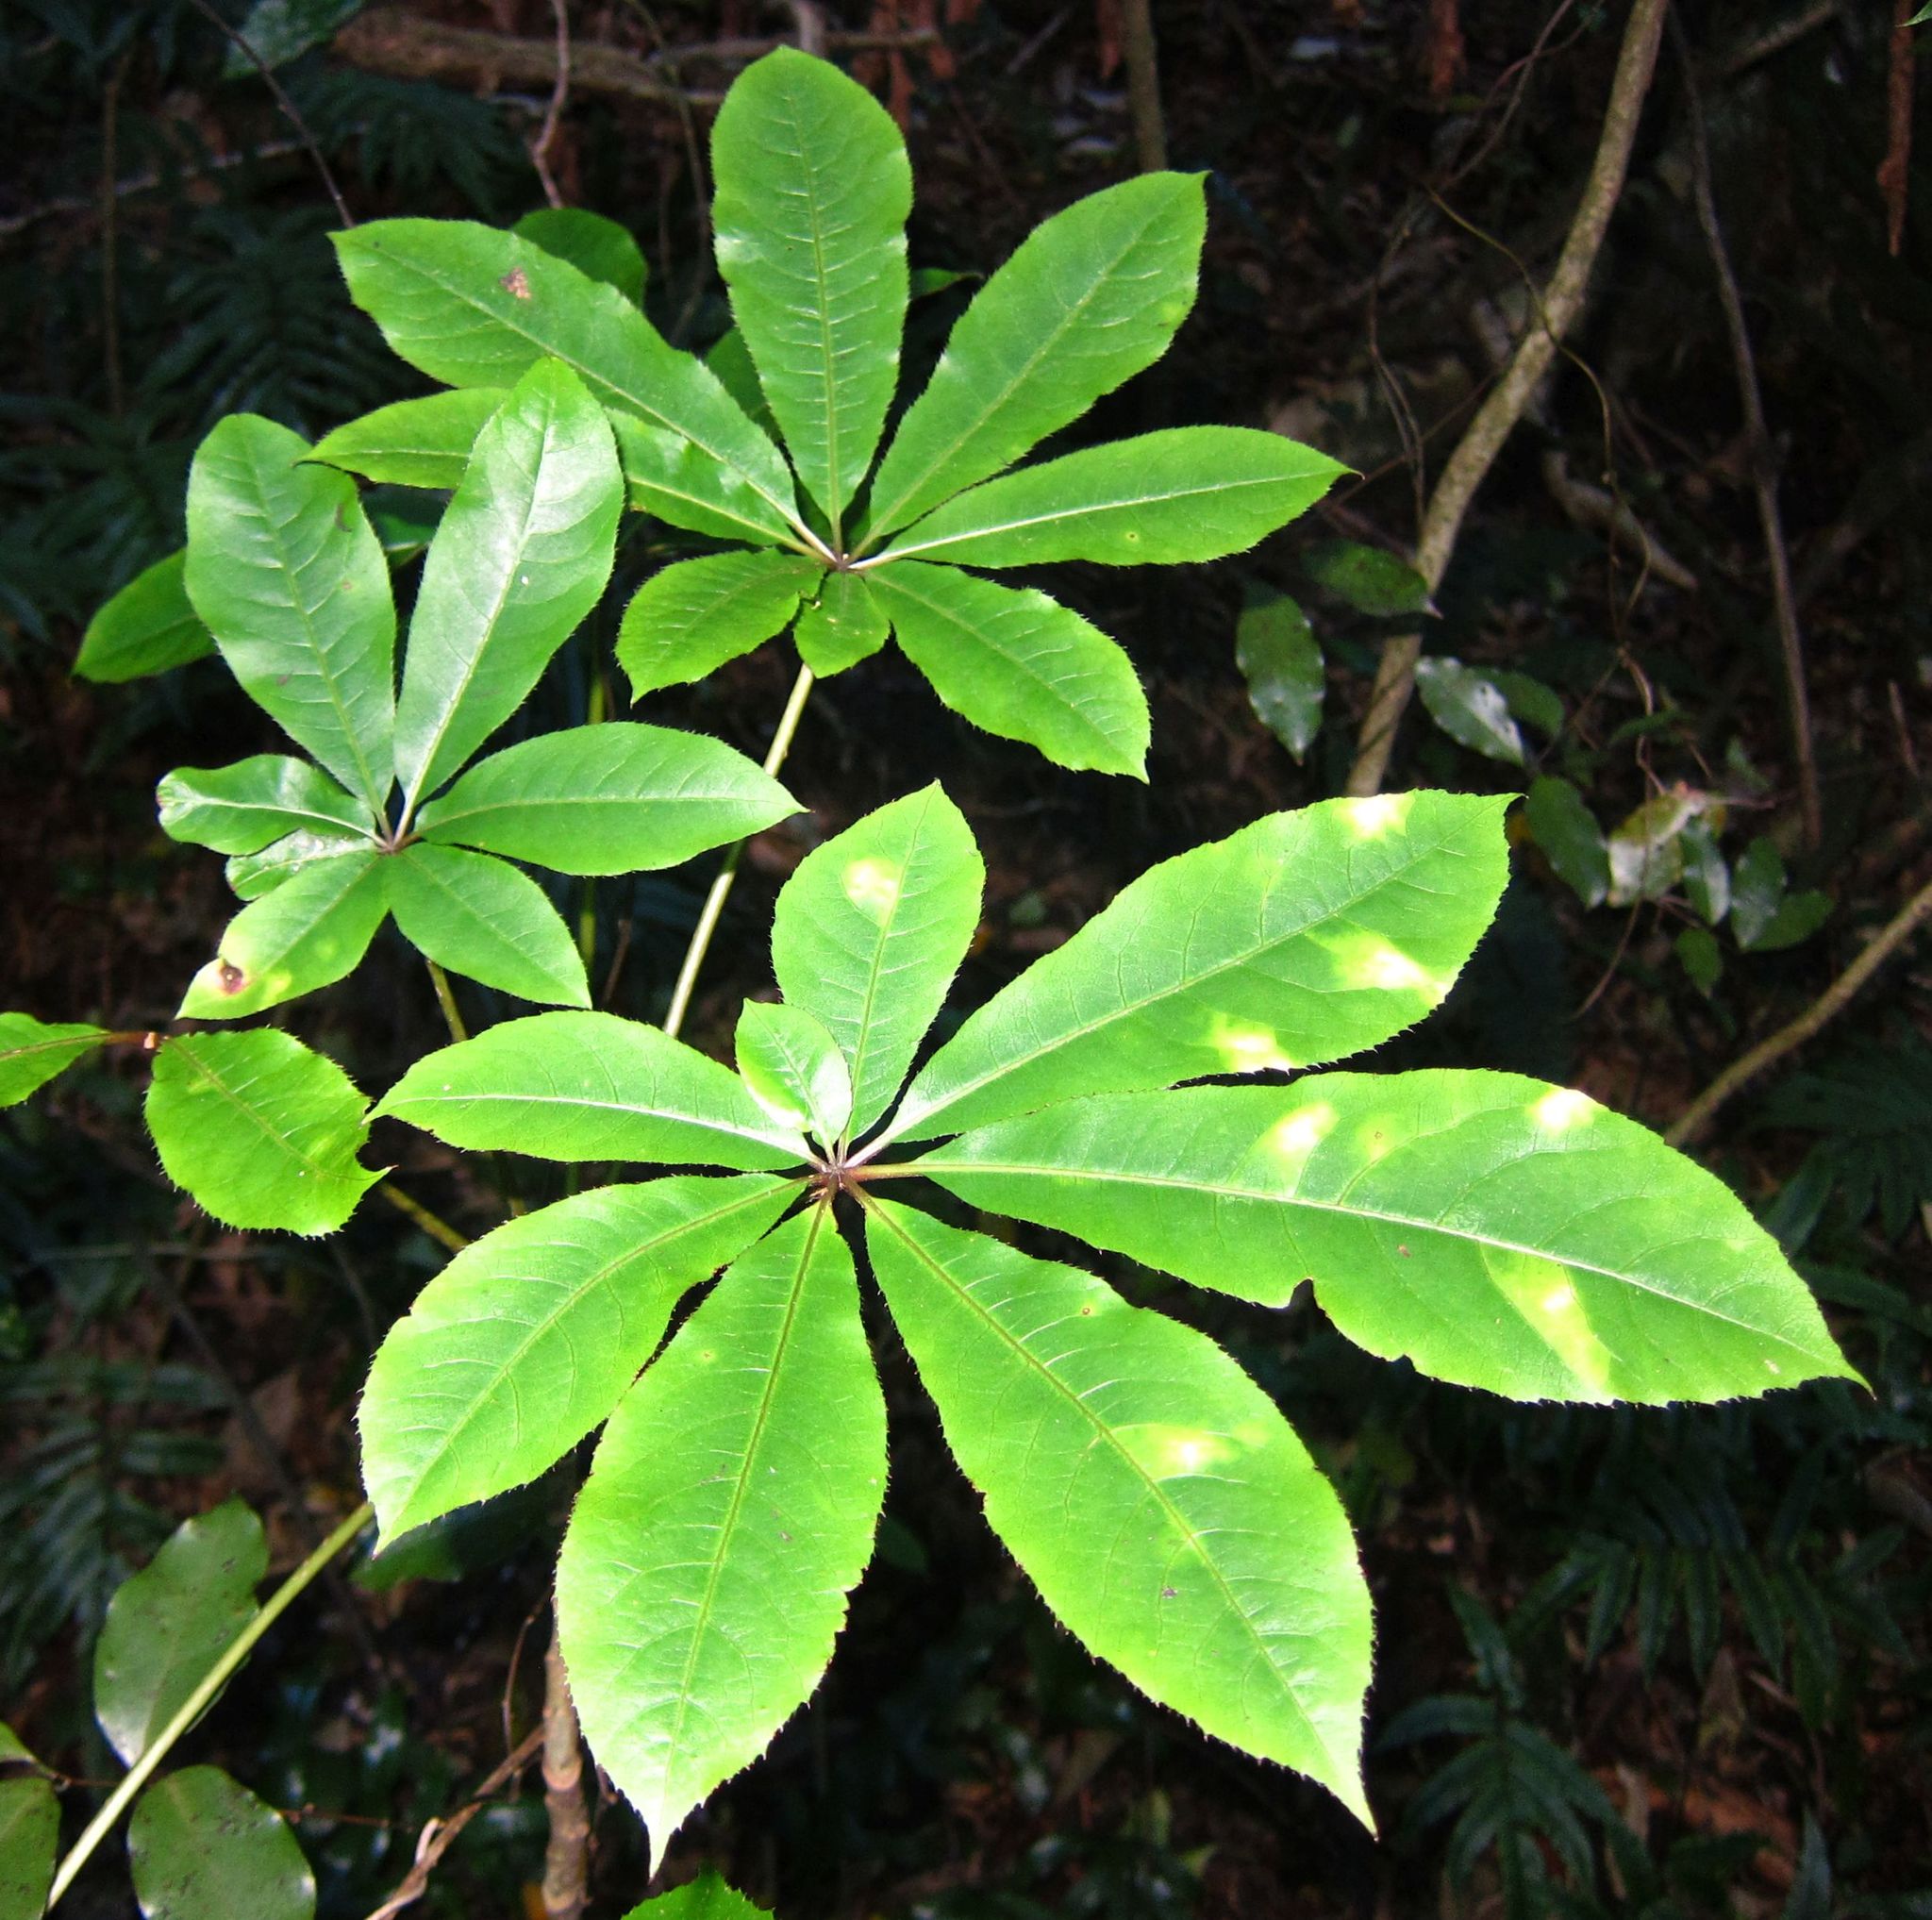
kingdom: Plantae
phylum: Tracheophyta
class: Magnoliopsida
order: Apiales
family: Araliaceae
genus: Schefflera
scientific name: Schefflera digitata
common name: Pate
